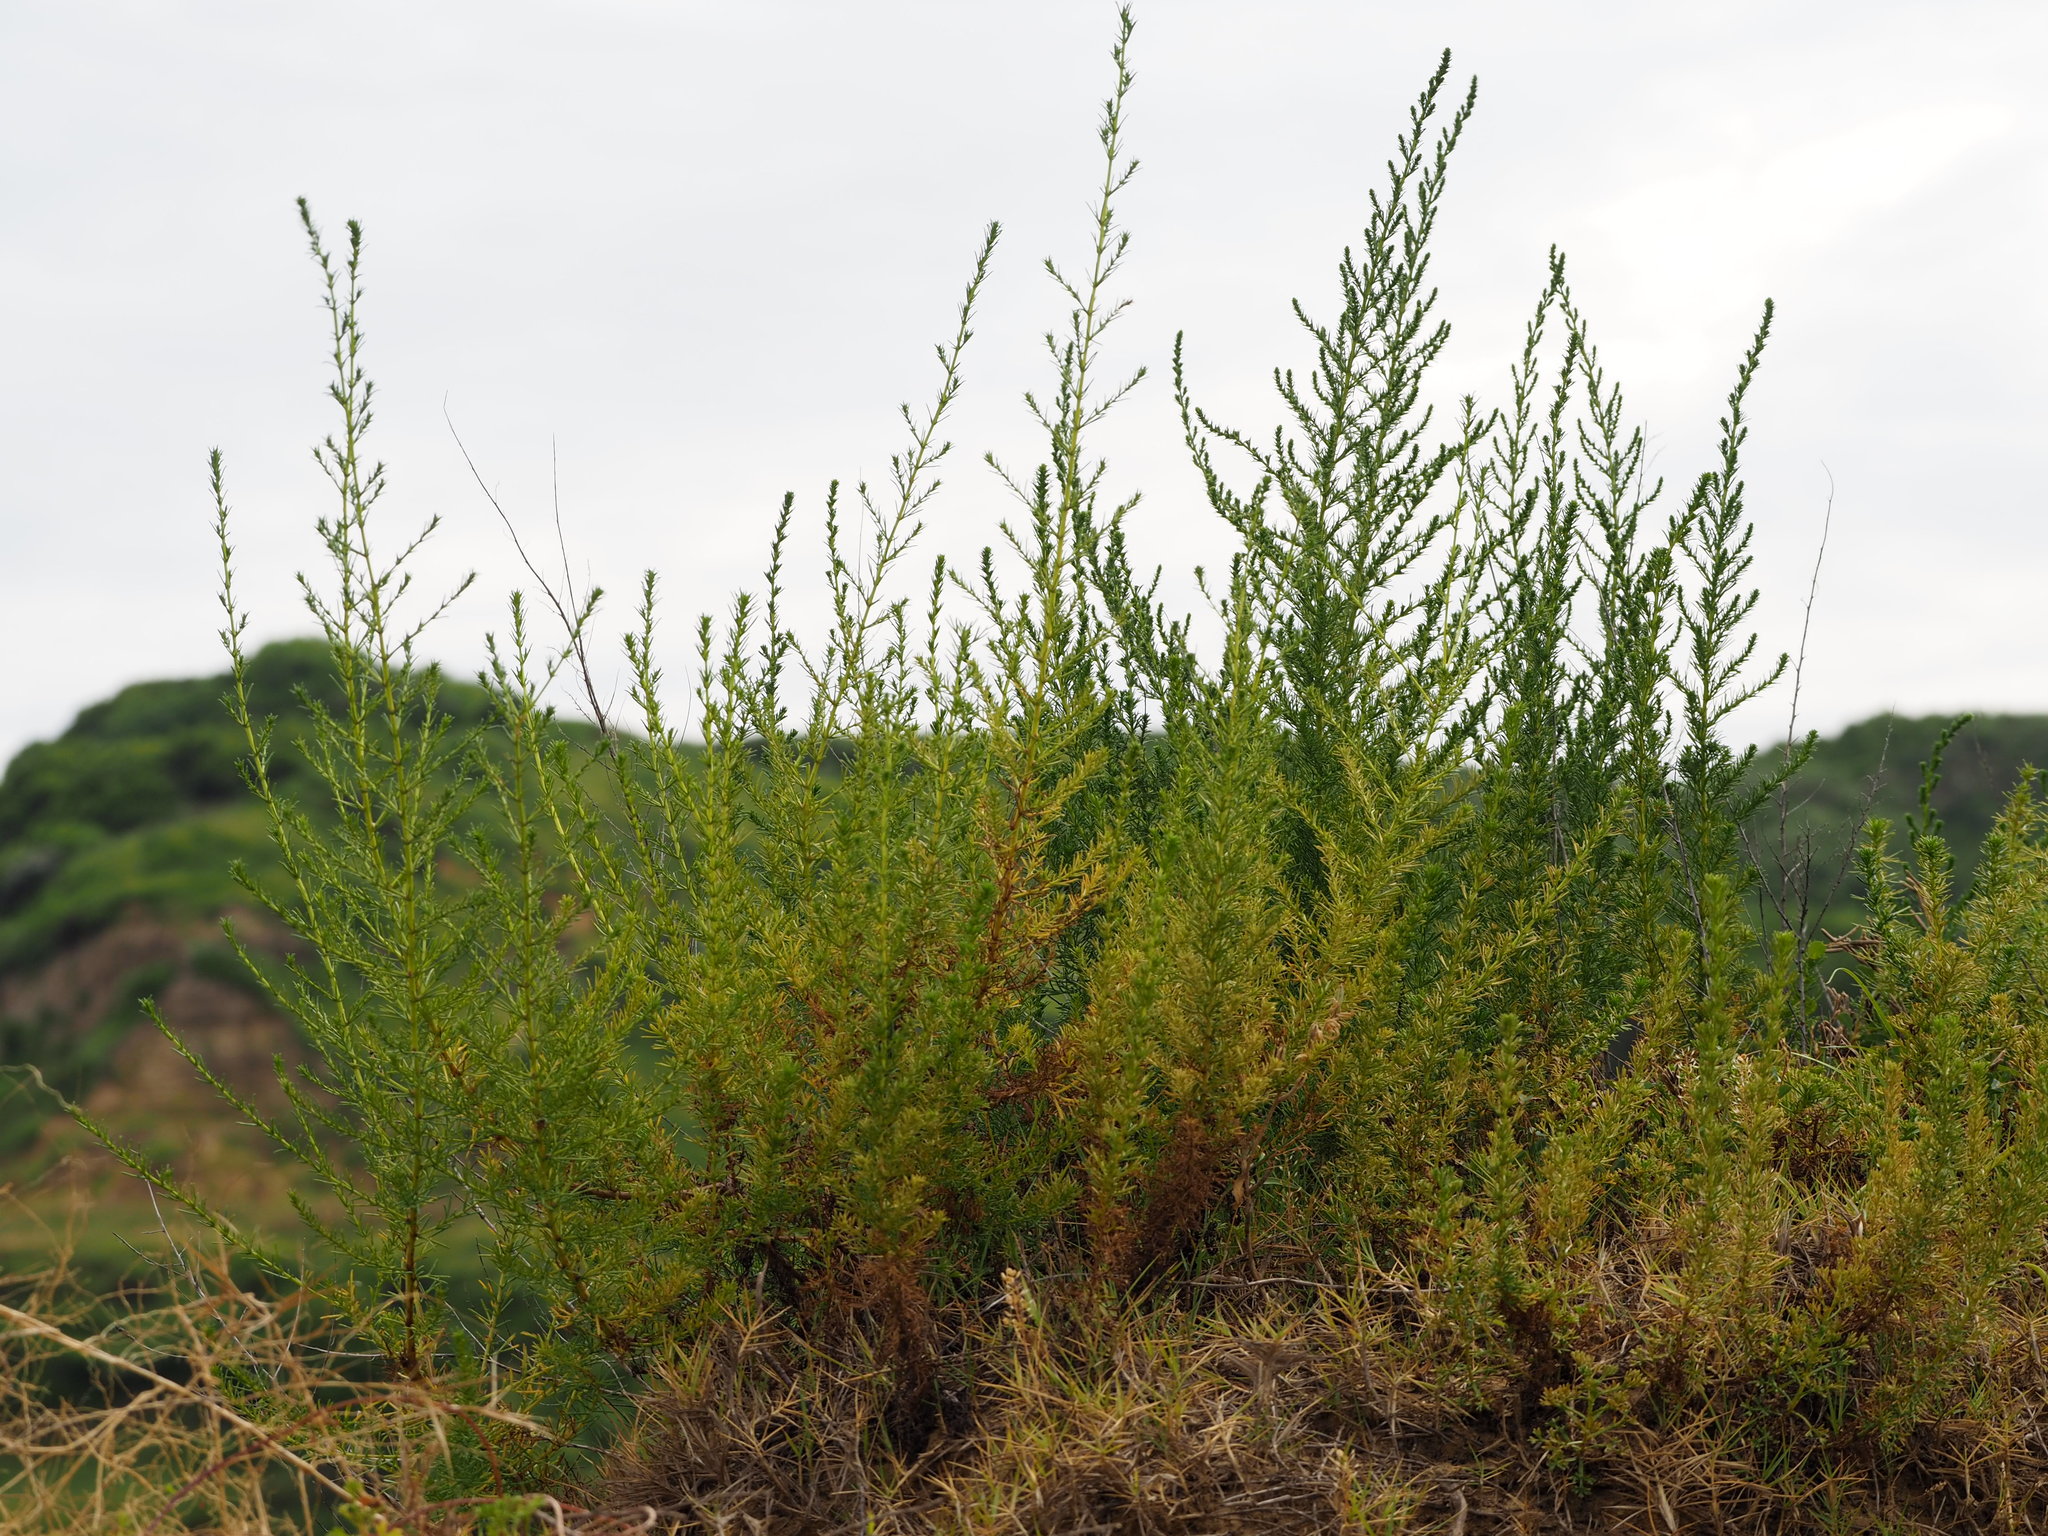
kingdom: Plantae
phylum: Tracheophyta
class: Magnoliopsida
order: Asterales
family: Asteraceae
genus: Artemisia
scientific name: Artemisia capillaris
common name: Yin-chen wormwood
